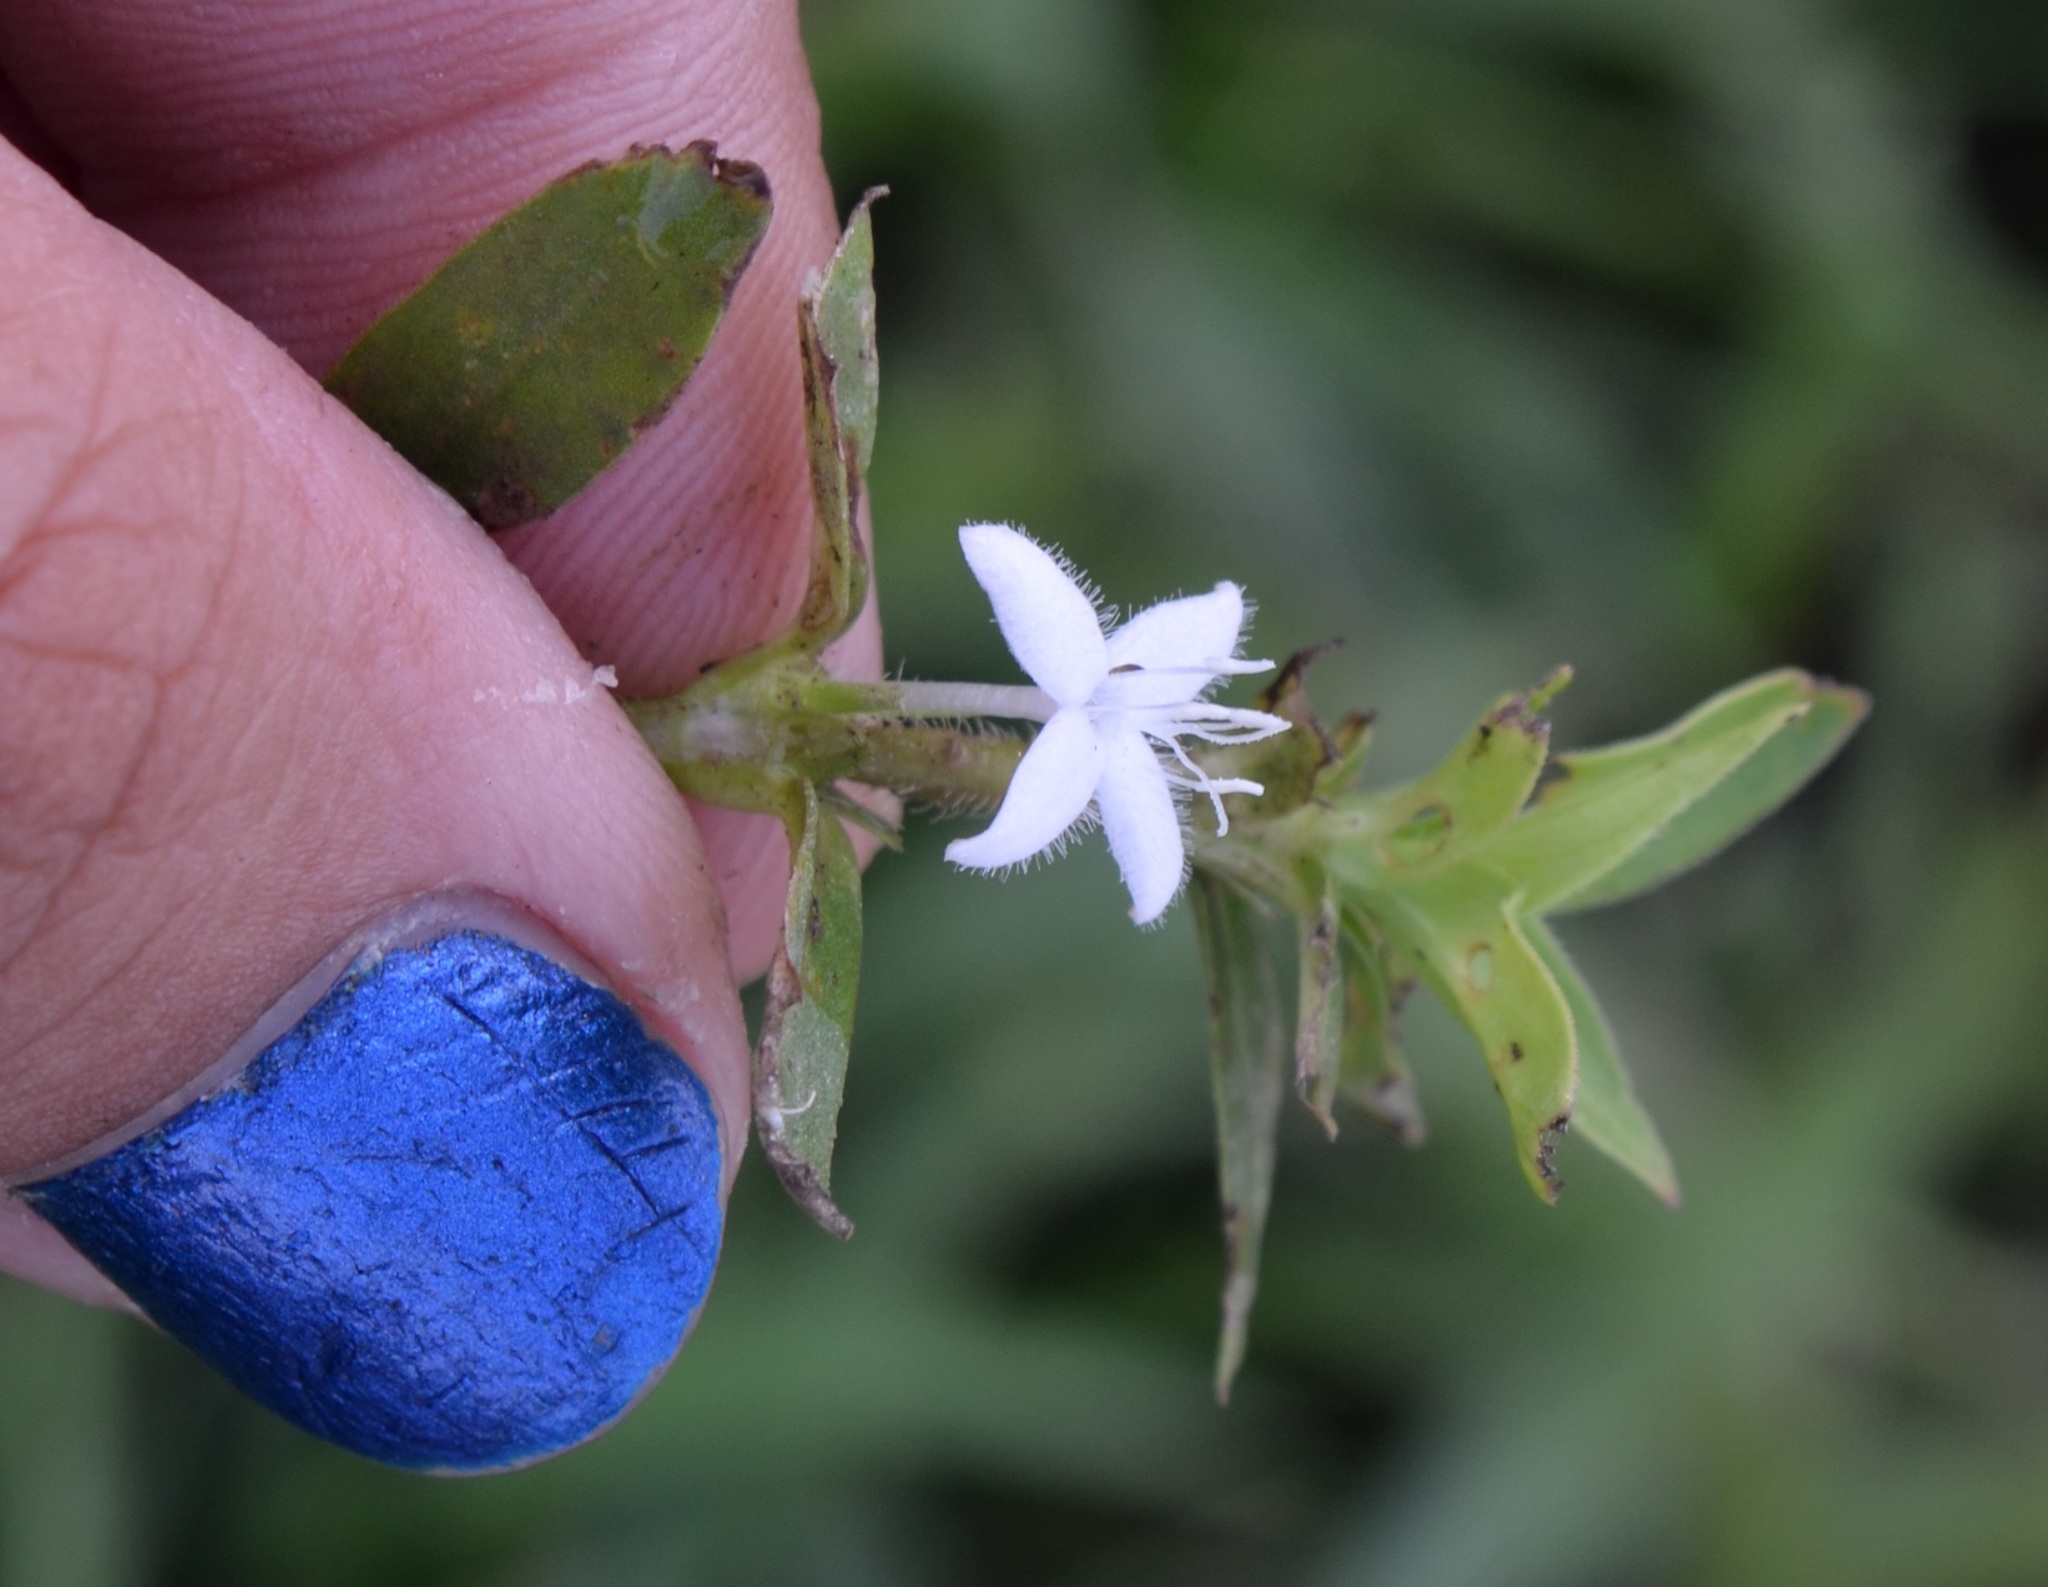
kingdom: Plantae
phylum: Tracheophyta
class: Magnoliopsida
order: Gentianales
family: Rubiaceae
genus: Diodia
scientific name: Diodia virginiana
